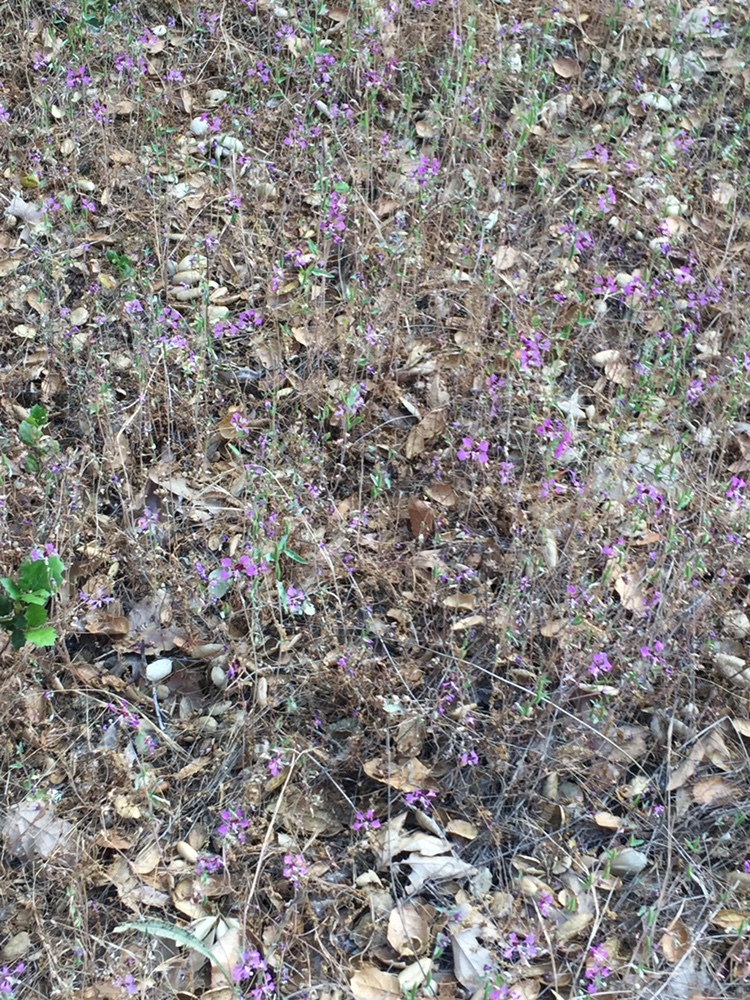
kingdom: Plantae
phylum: Tracheophyta
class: Magnoliopsida
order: Myrtales
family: Onagraceae
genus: Clarkia
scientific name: Clarkia unguiculata
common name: Clarkia
